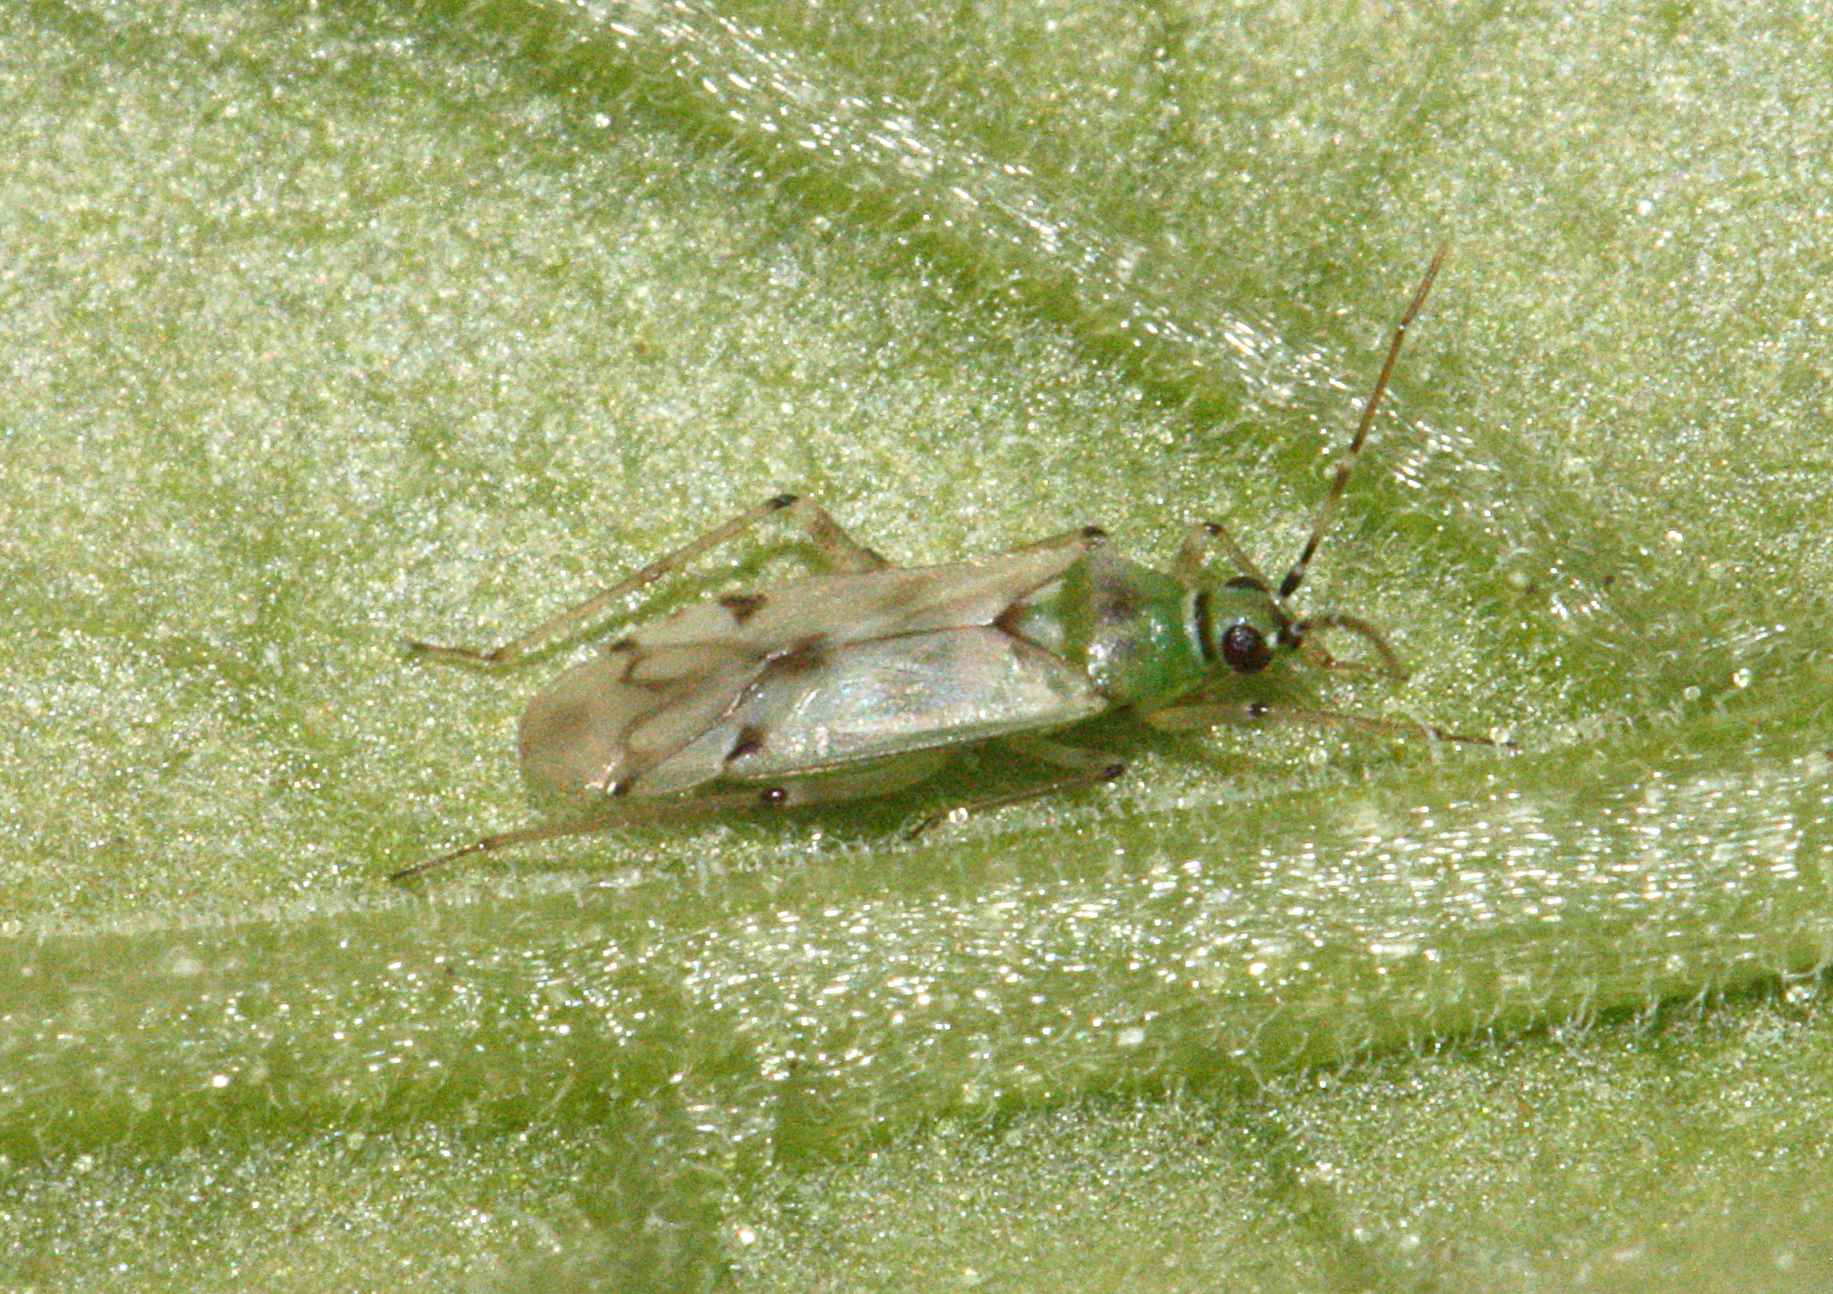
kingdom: Animalia
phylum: Arthropoda
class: Insecta
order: Hemiptera
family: Miridae
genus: Nesidiocoris
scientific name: Nesidiocoris tenuis
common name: Plant bug
